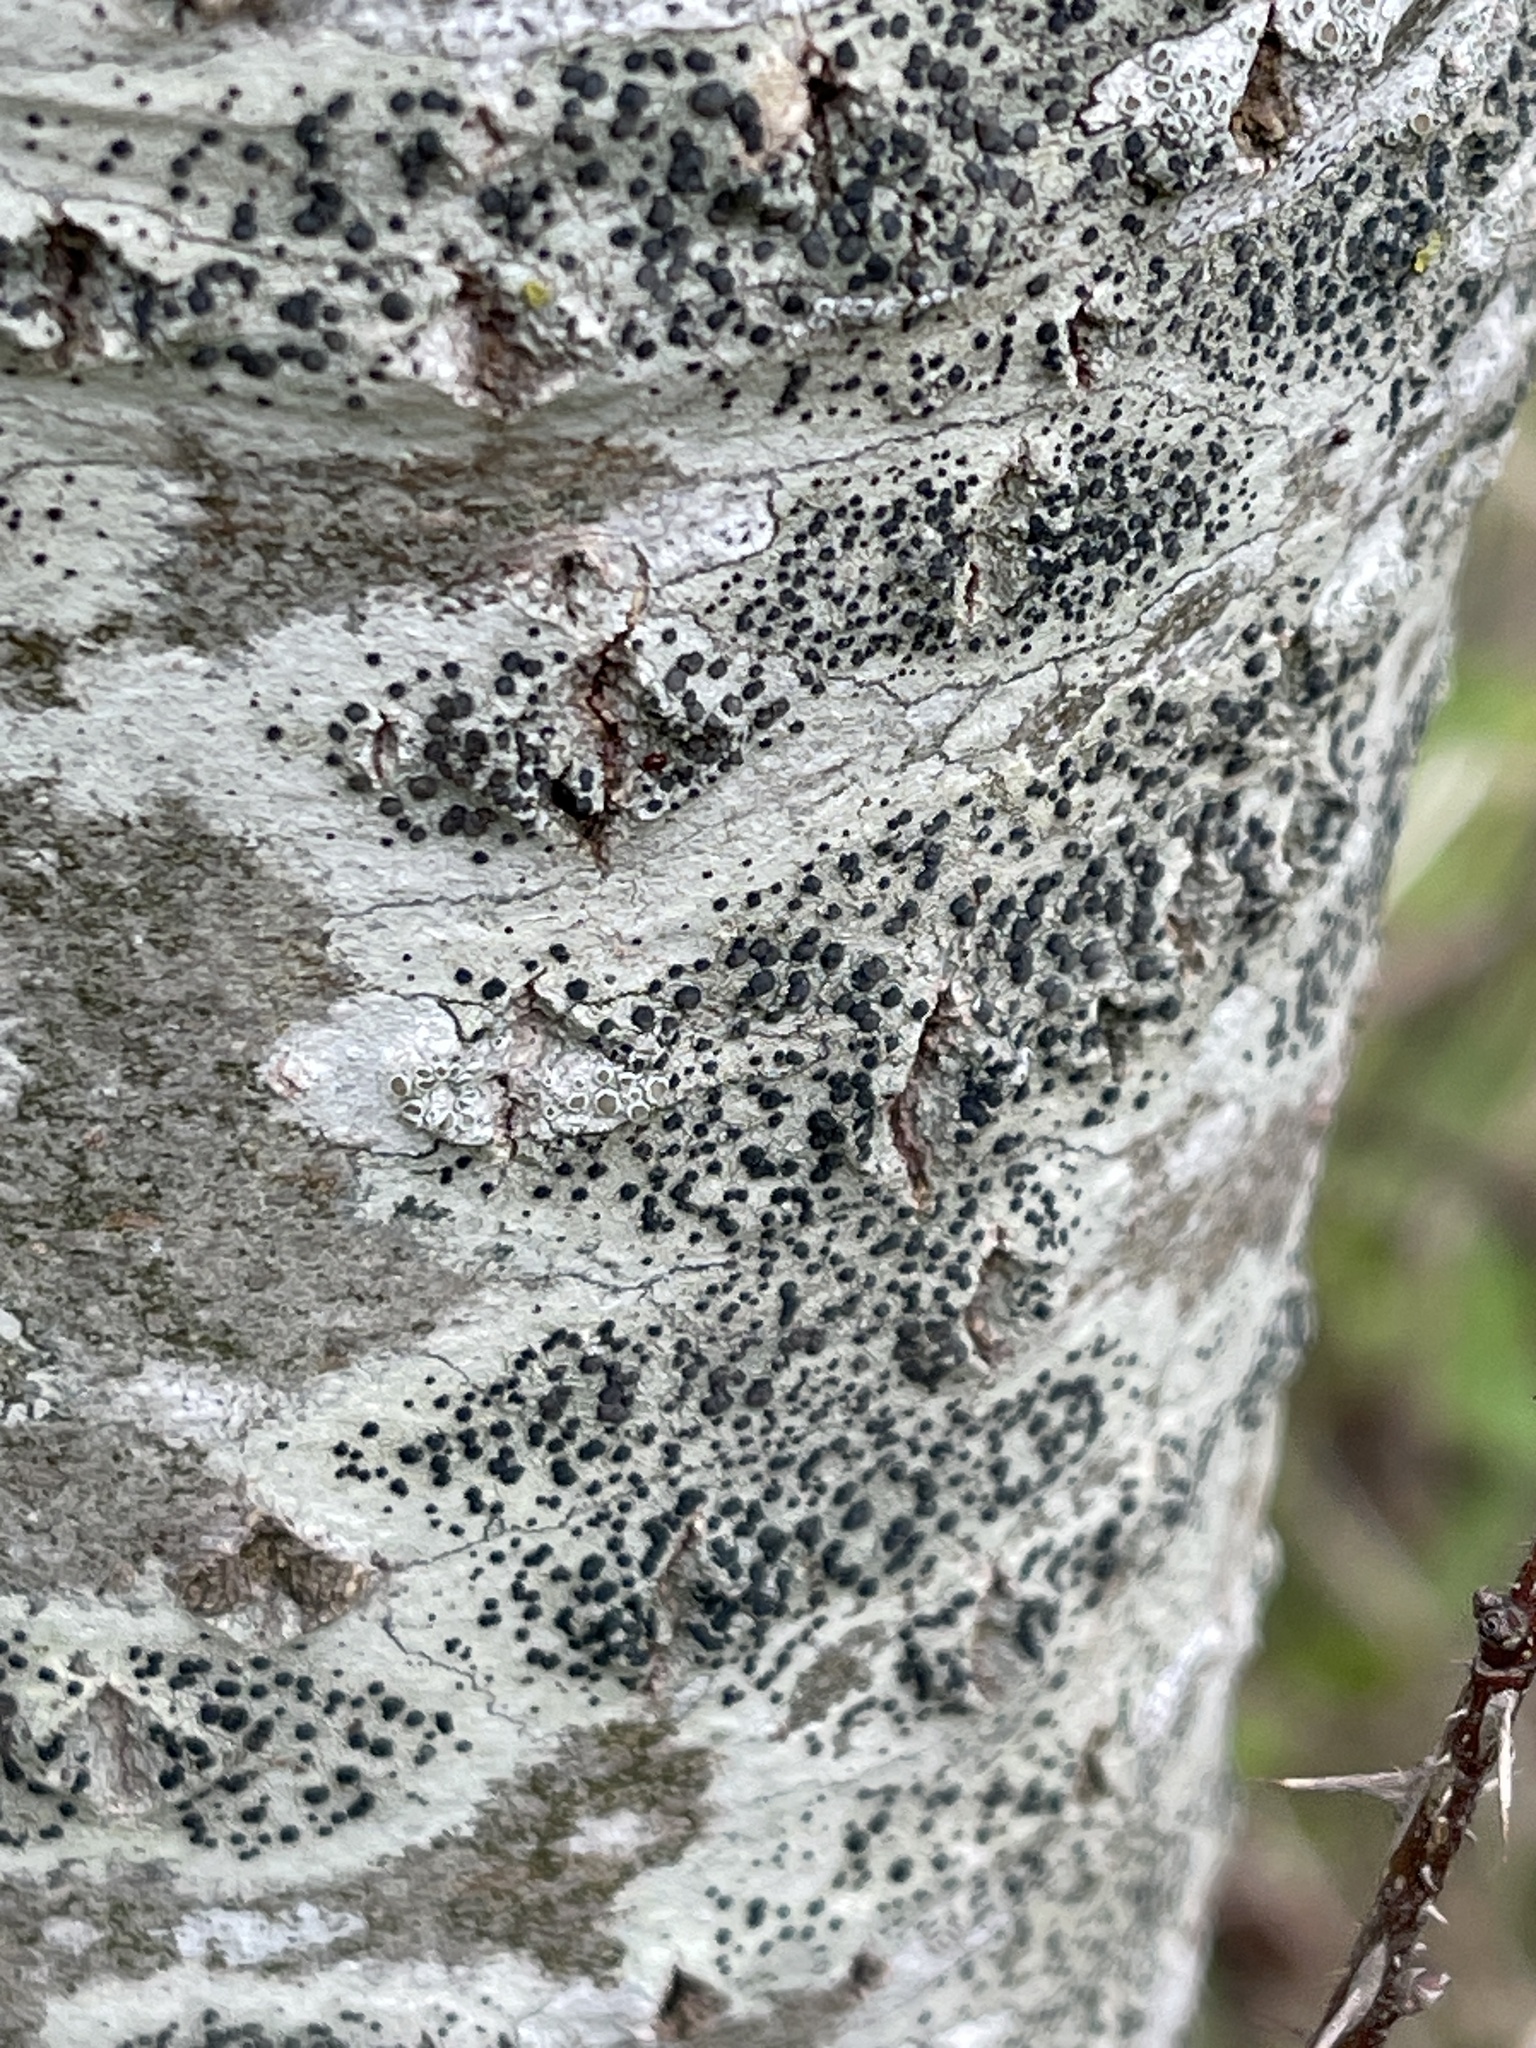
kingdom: Fungi
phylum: Ascomycota
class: Lecanoromycetes
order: Lecanorales
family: Lecanoraceae
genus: Lecidella
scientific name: Lecidella elaeochroma
